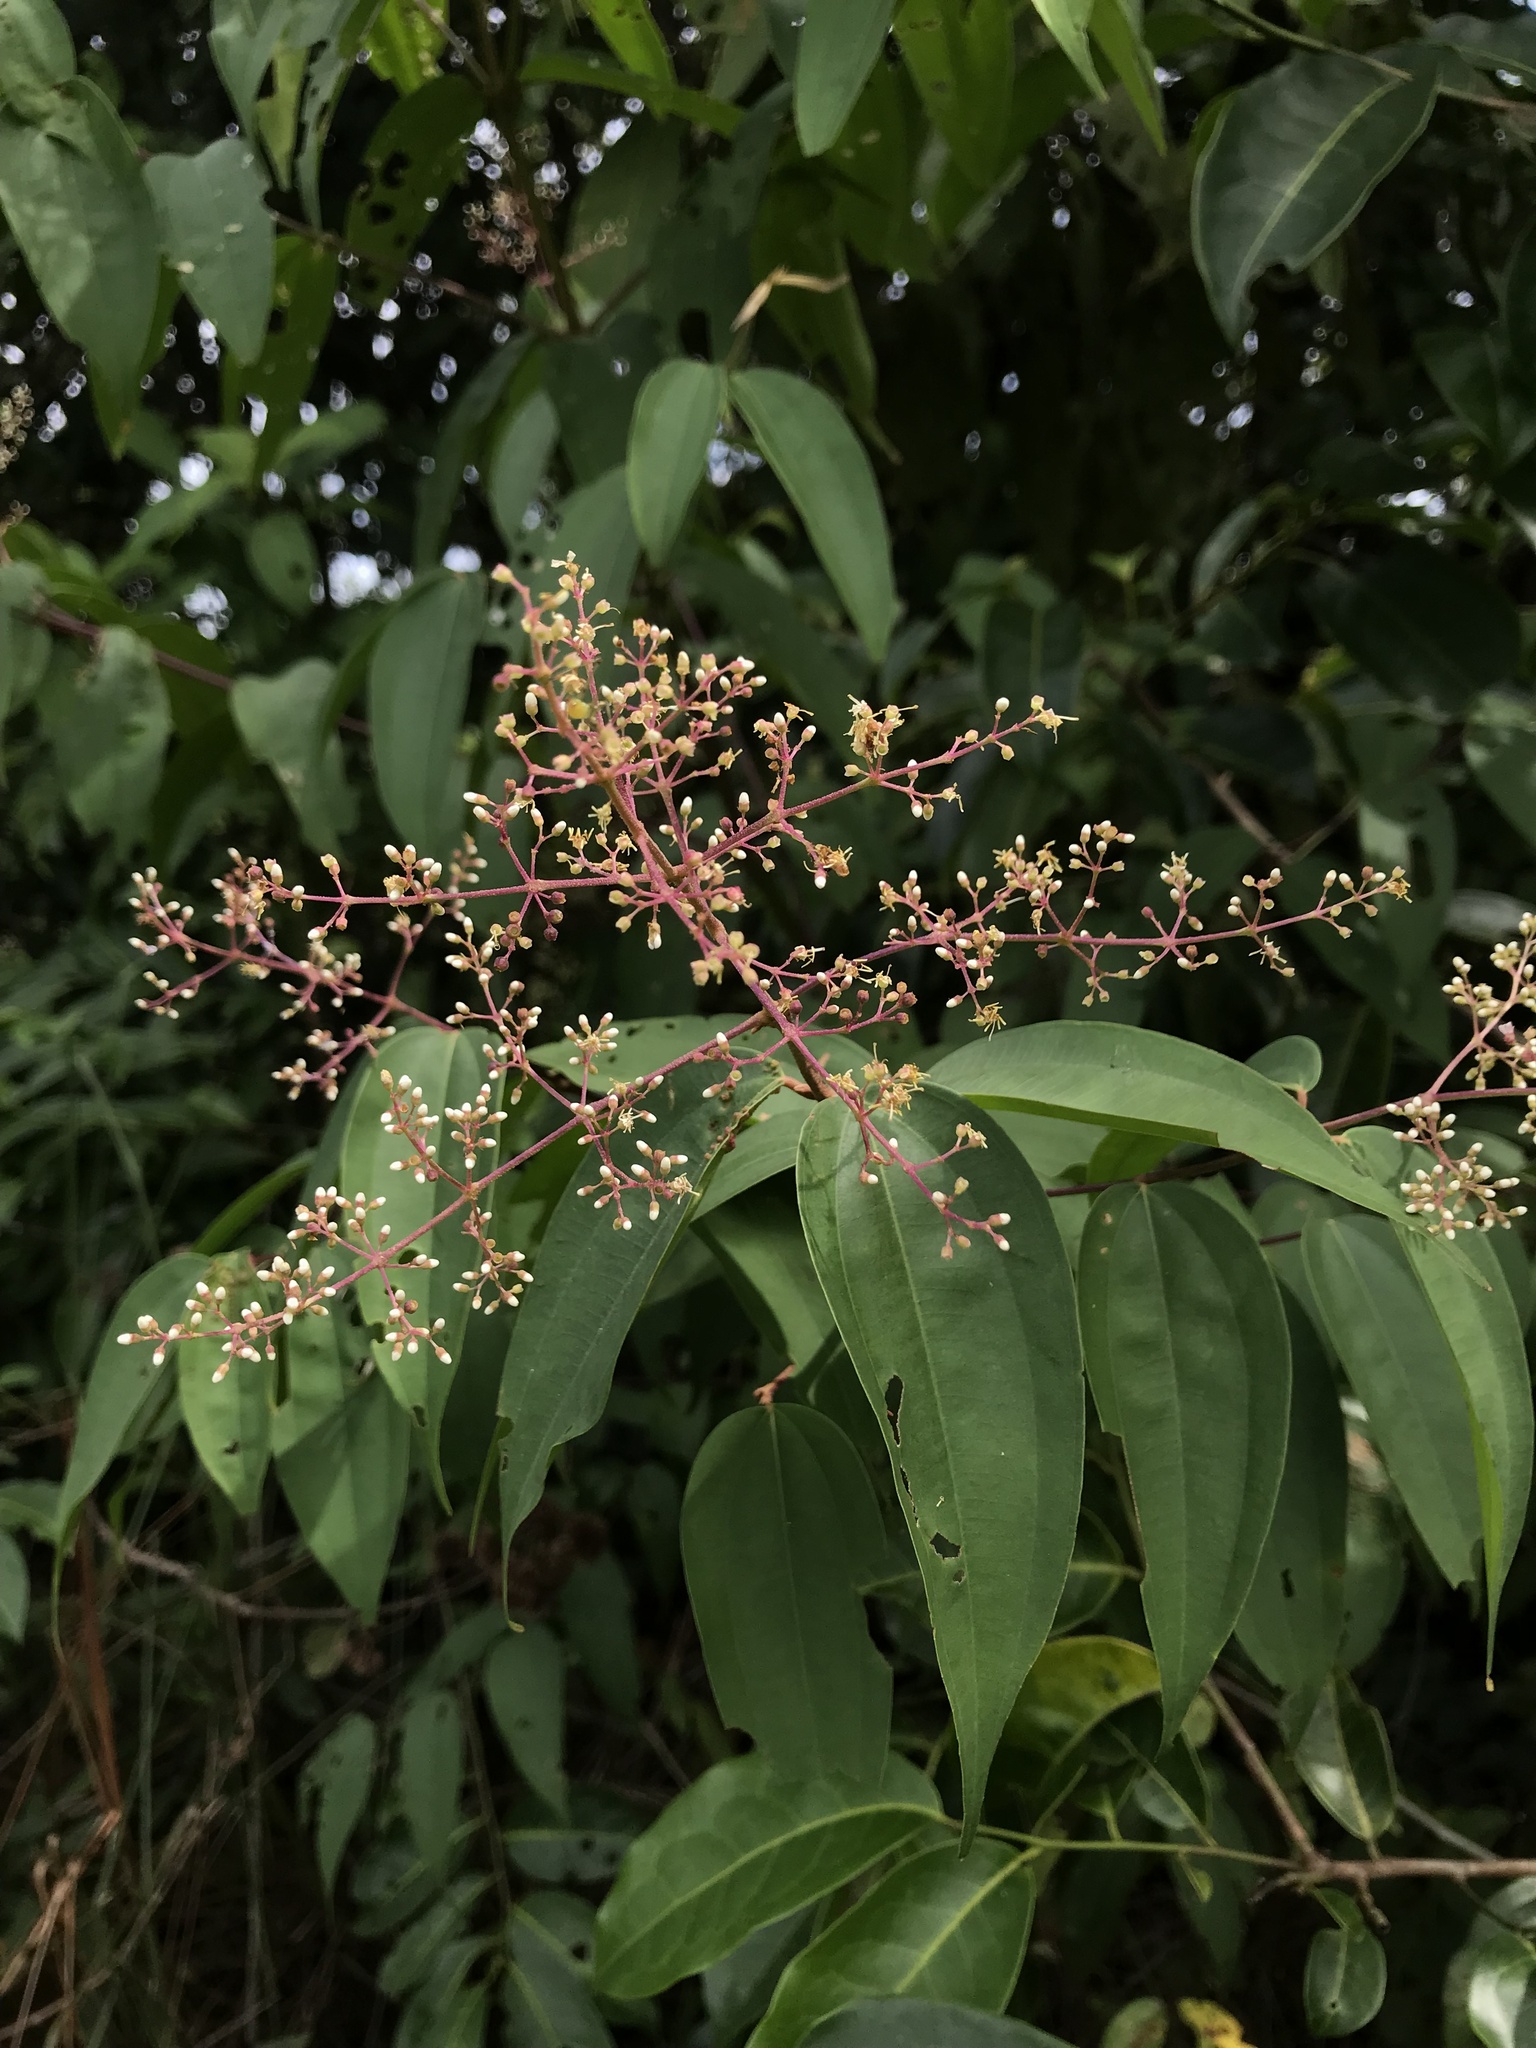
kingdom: Plantae
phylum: Tracheophyta
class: Magnoliopsida
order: Myrtales
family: Melastomataceae
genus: Miconia
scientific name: Miconia minutiflora
